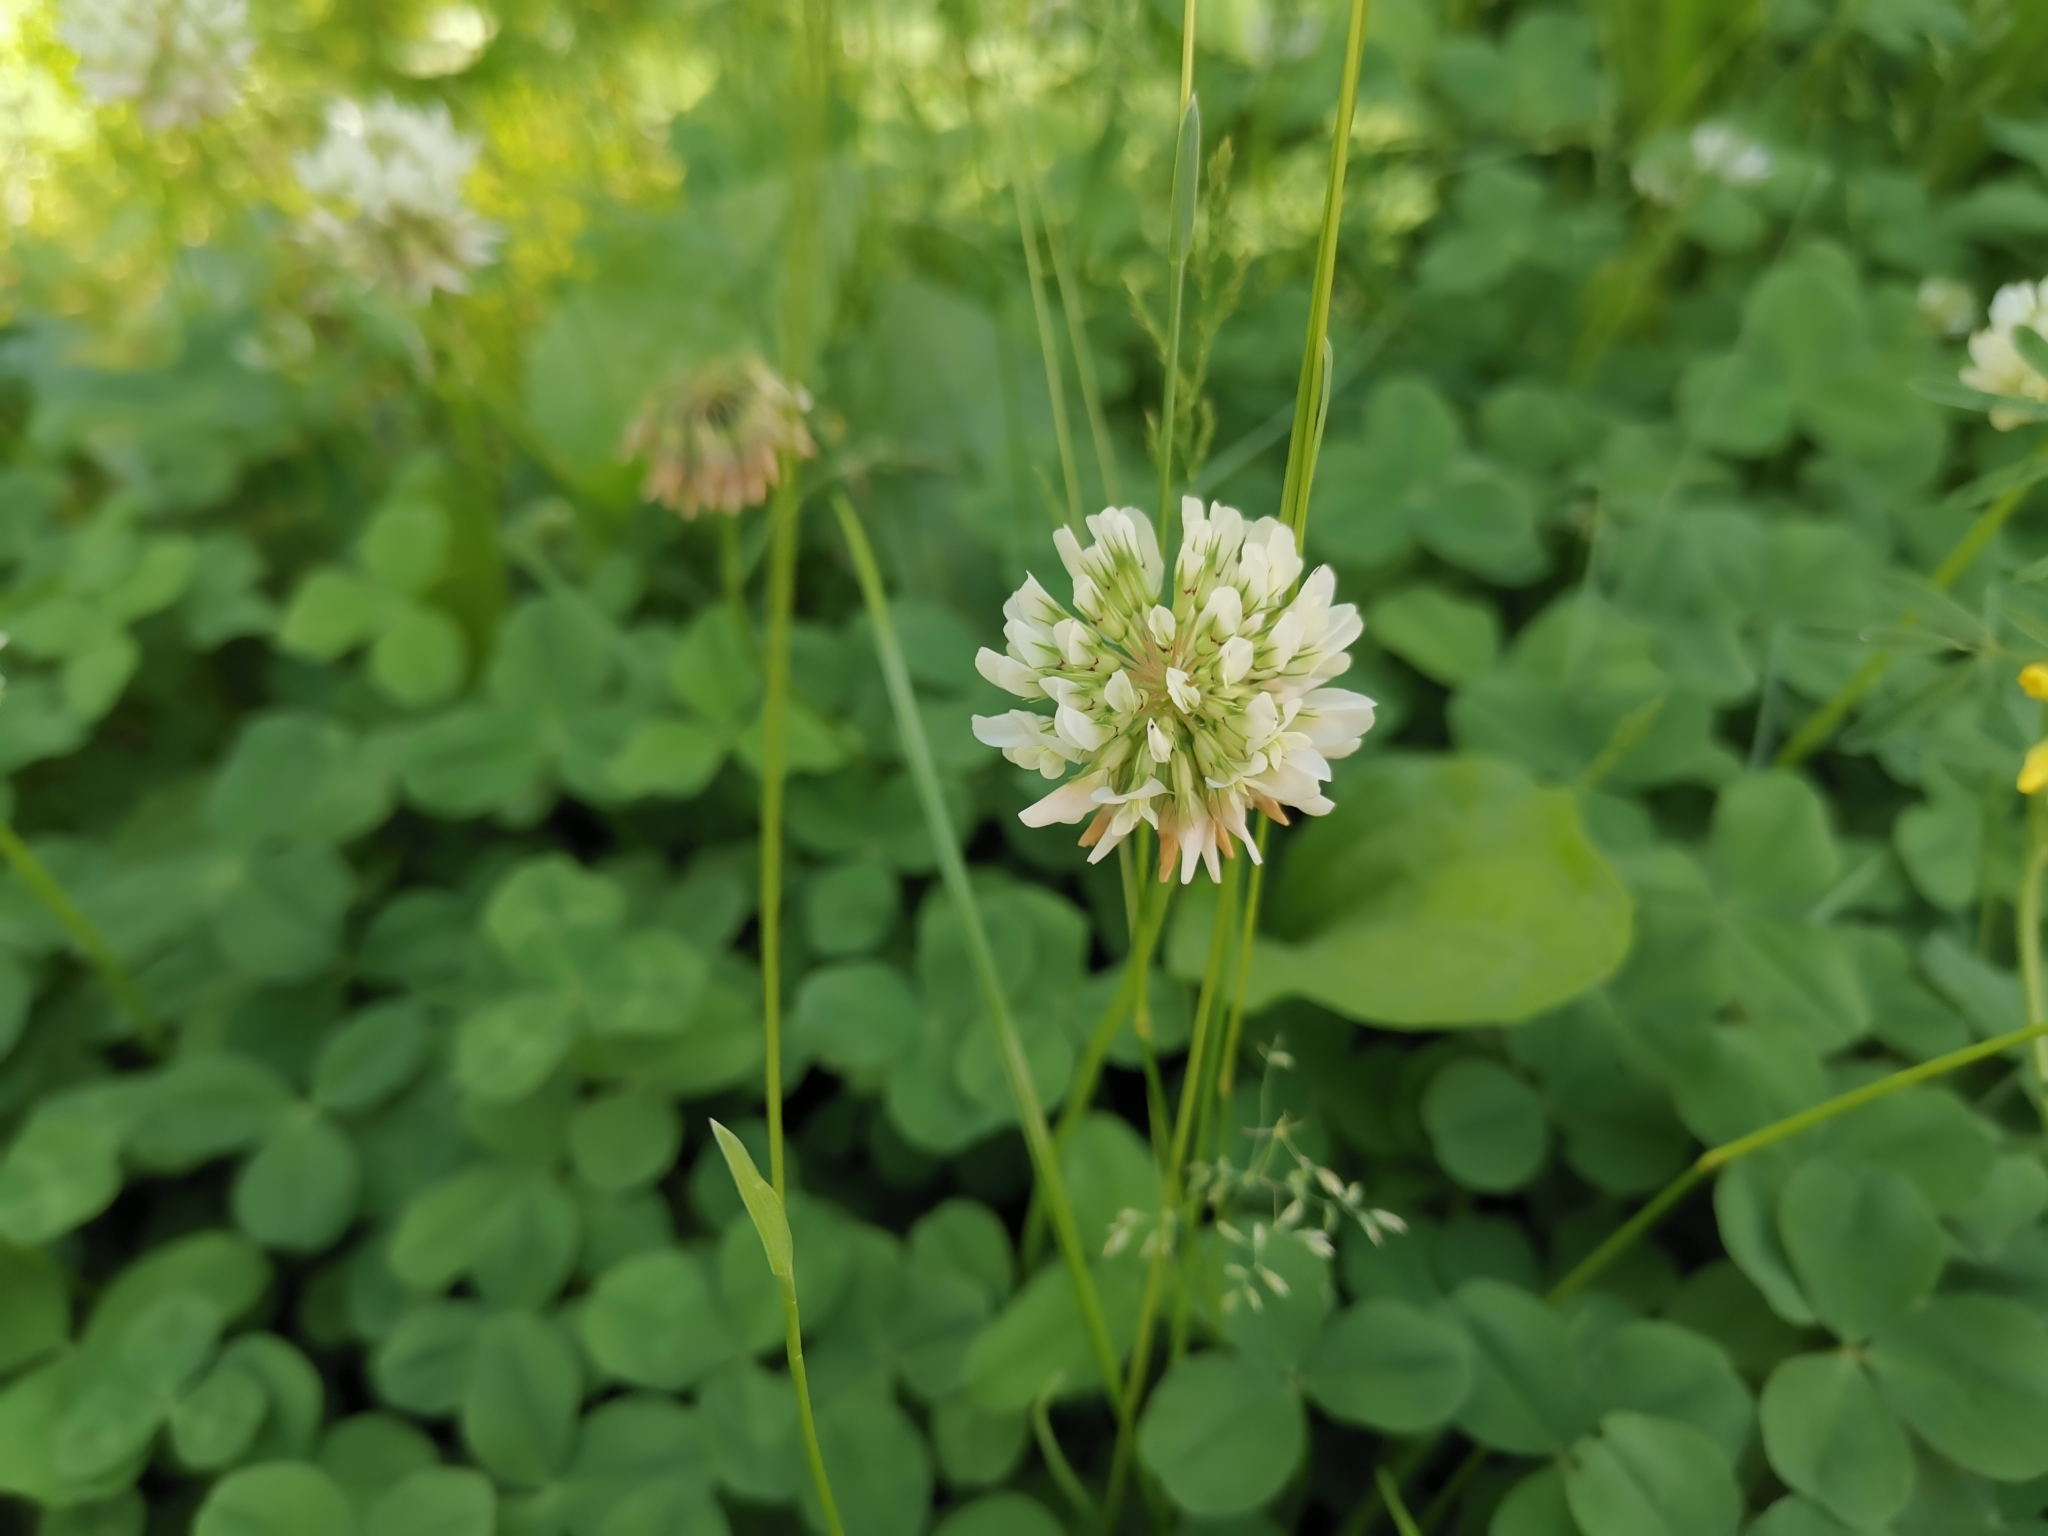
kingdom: Plantae
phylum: Tracheophyta
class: Magnoliopsida
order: Fabales
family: Fabaceae
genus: Trifolium
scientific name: Trifolium repens
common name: White clover
